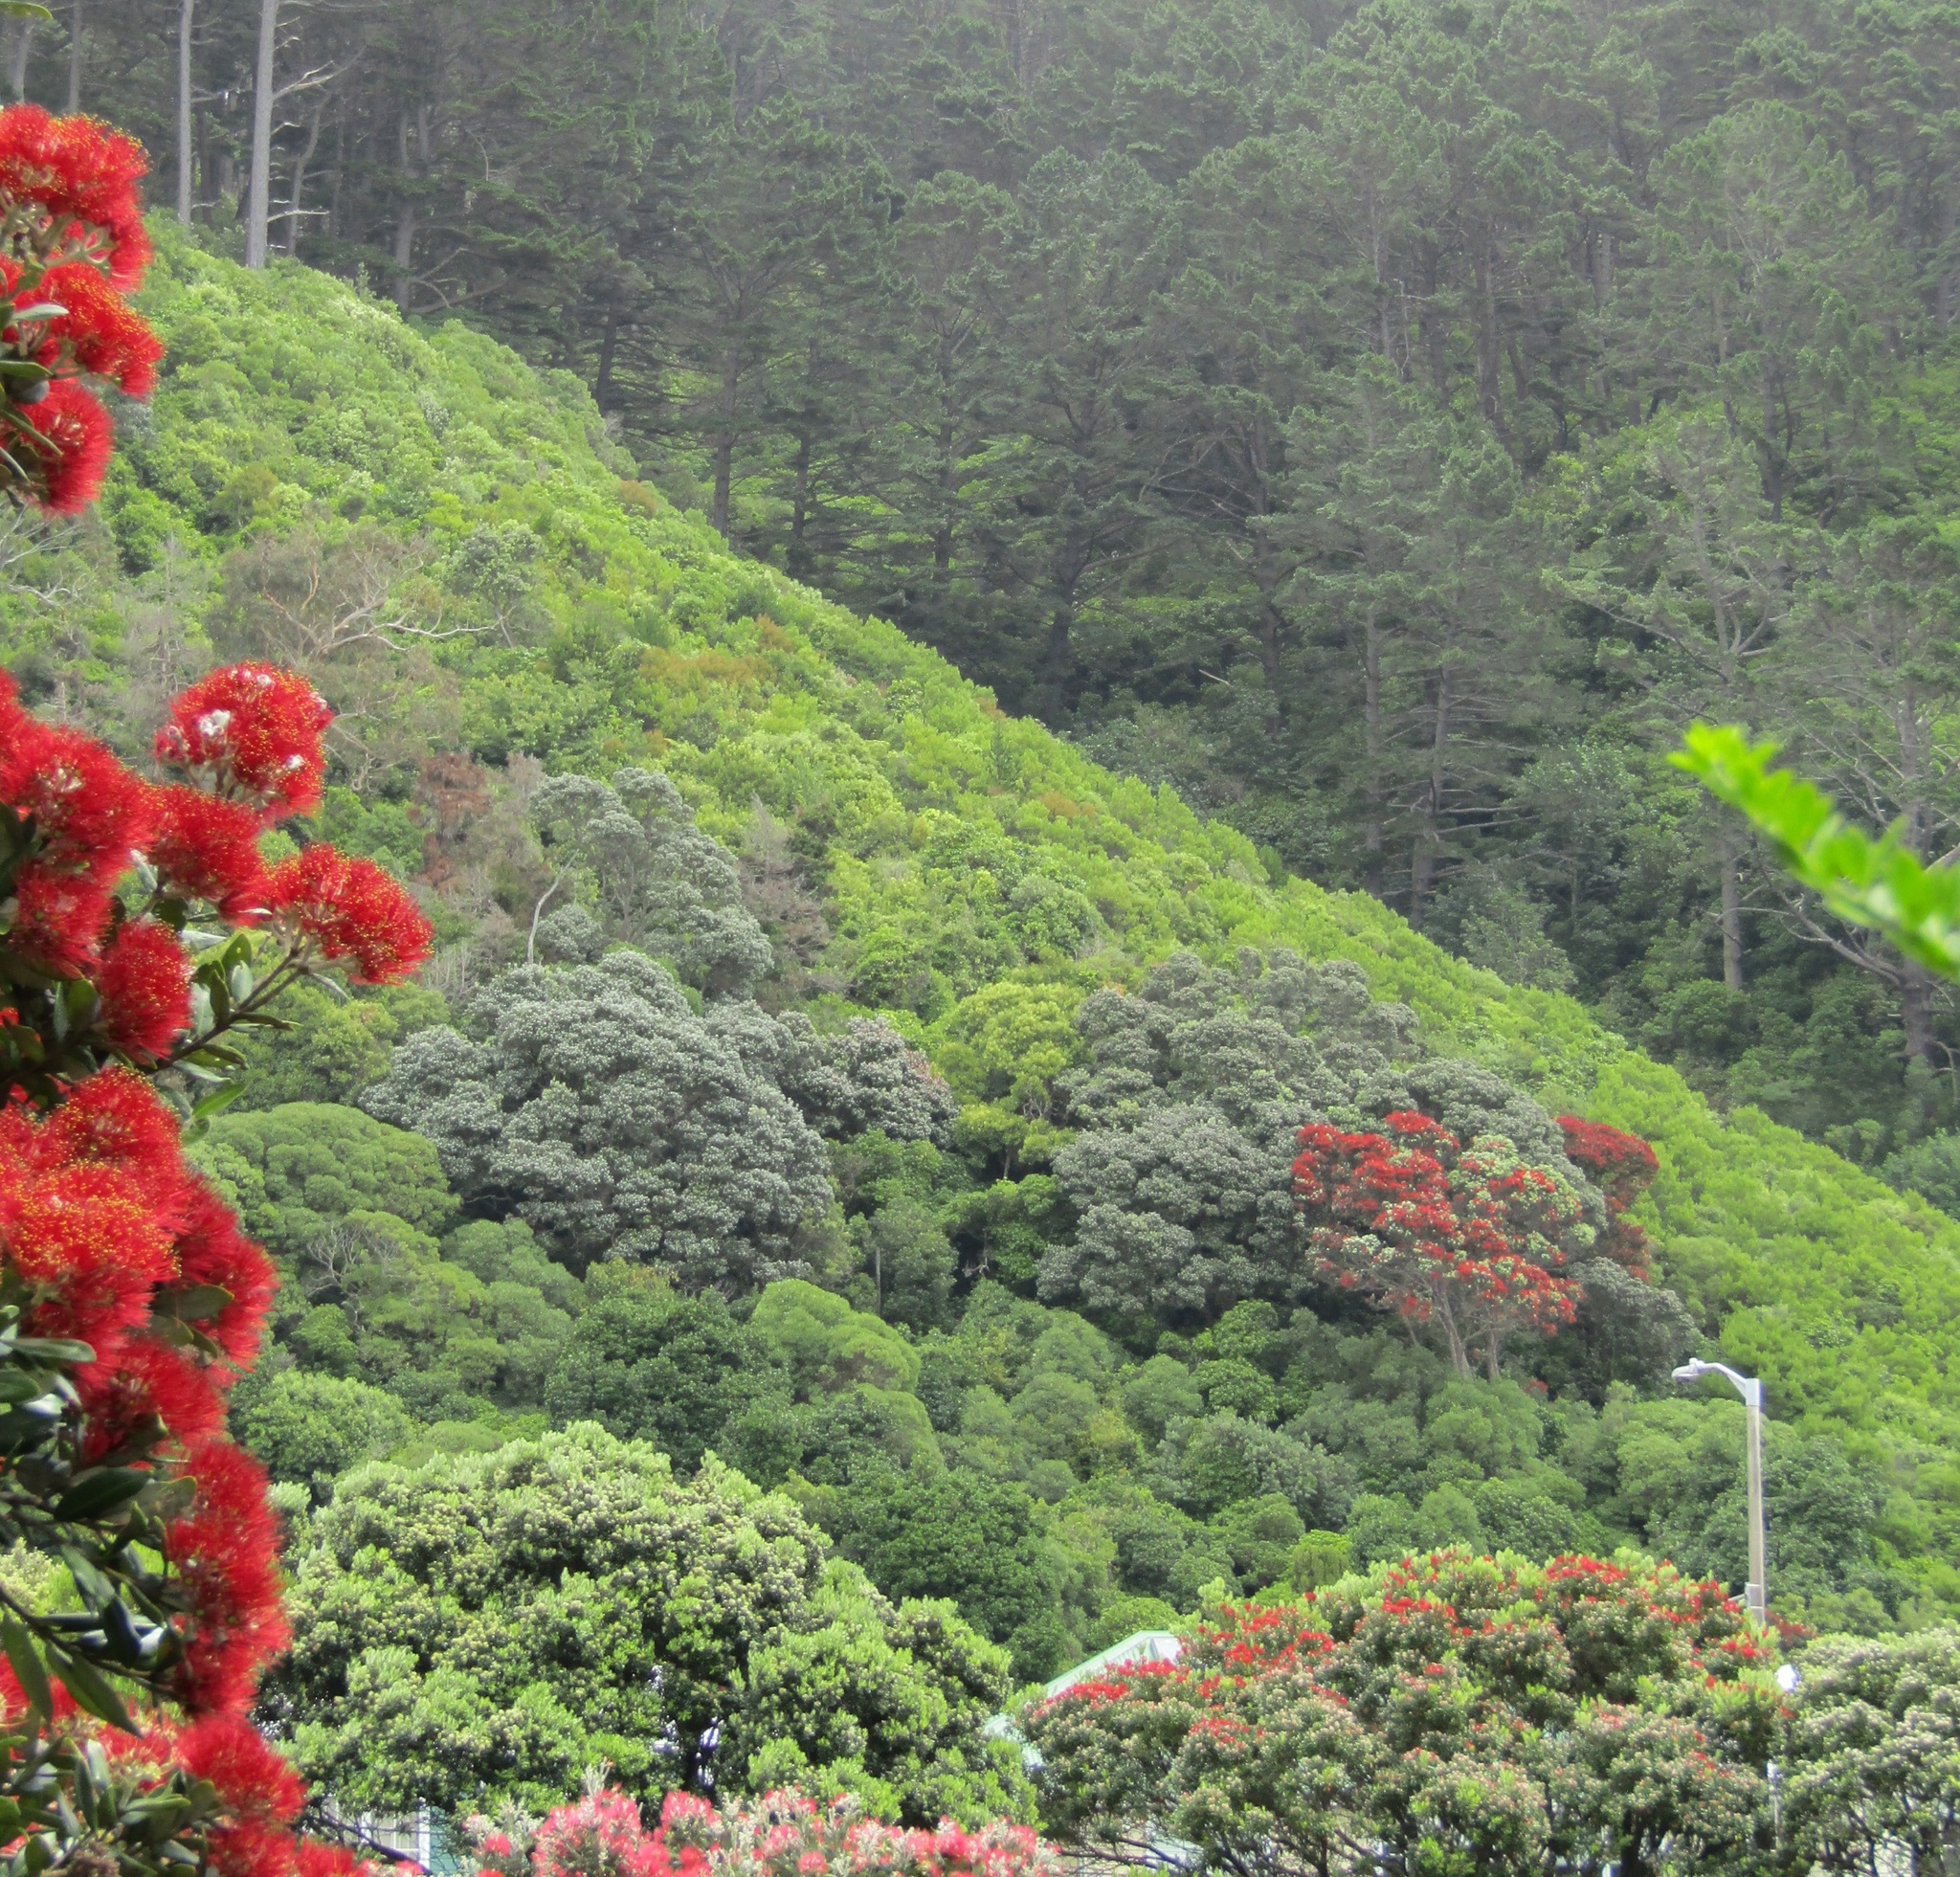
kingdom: Plantae
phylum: Tracheophyta
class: Pinopsida
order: Pinales
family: Pinaceae
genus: Pinus
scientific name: Pinus radiata
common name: Monterey pine
